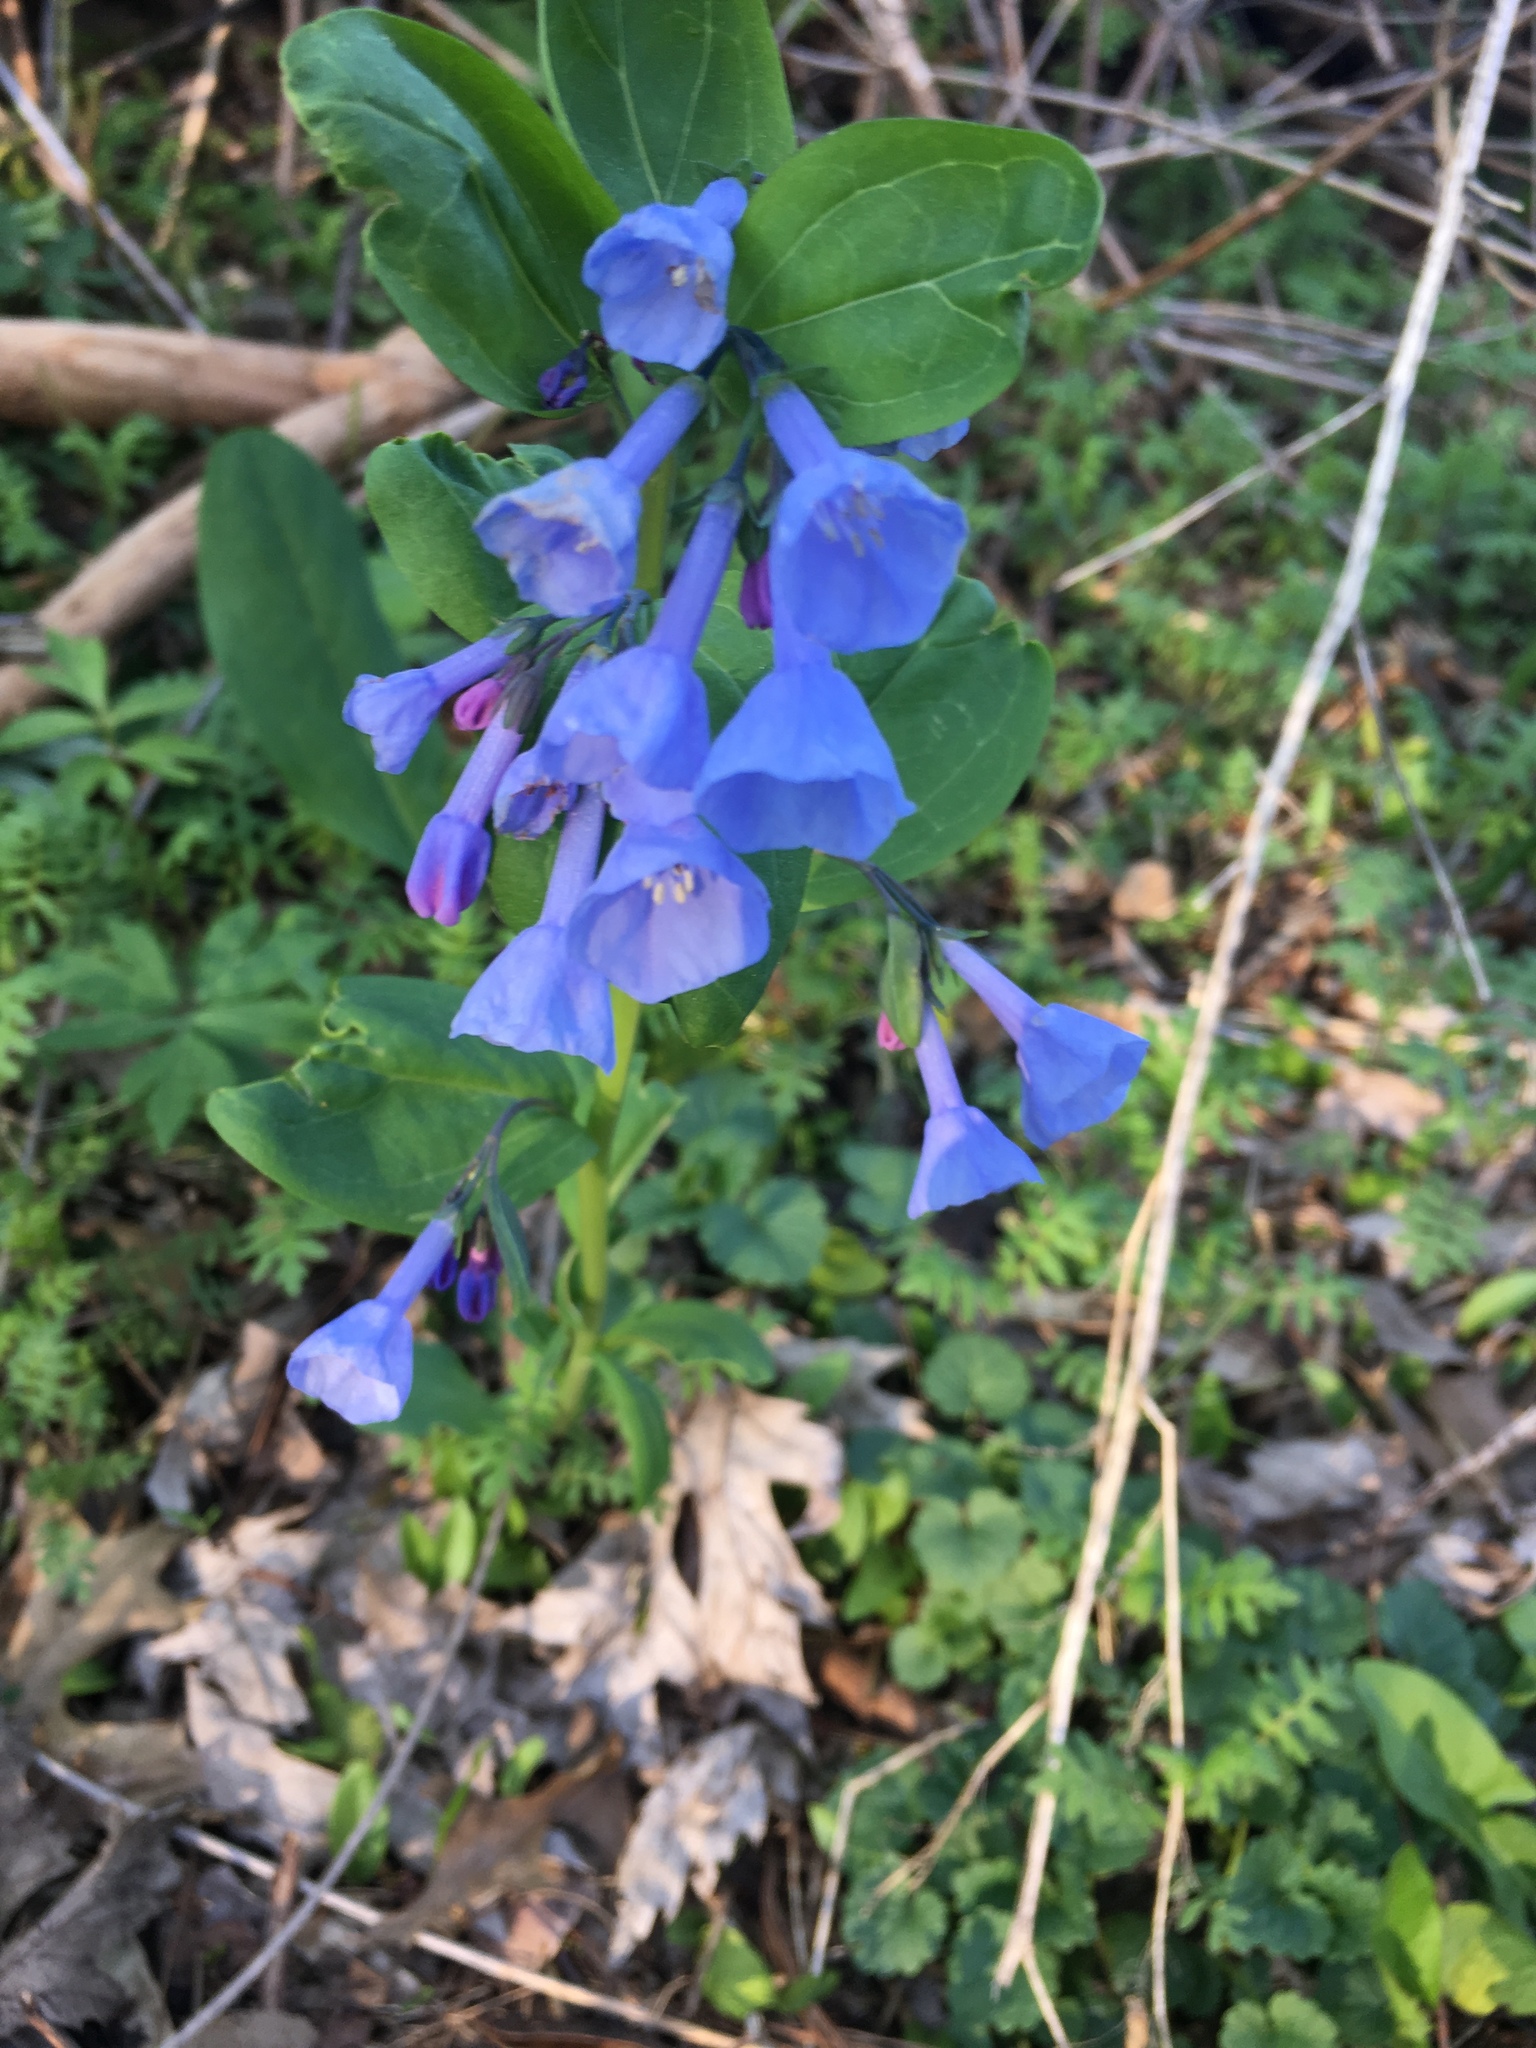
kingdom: Plantae
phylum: Tracheophyta
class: Magnoliopsida
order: Boraginales
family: Boraginaceae
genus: Mertensia
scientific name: Mertensia virginica
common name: Virginia bluebells
